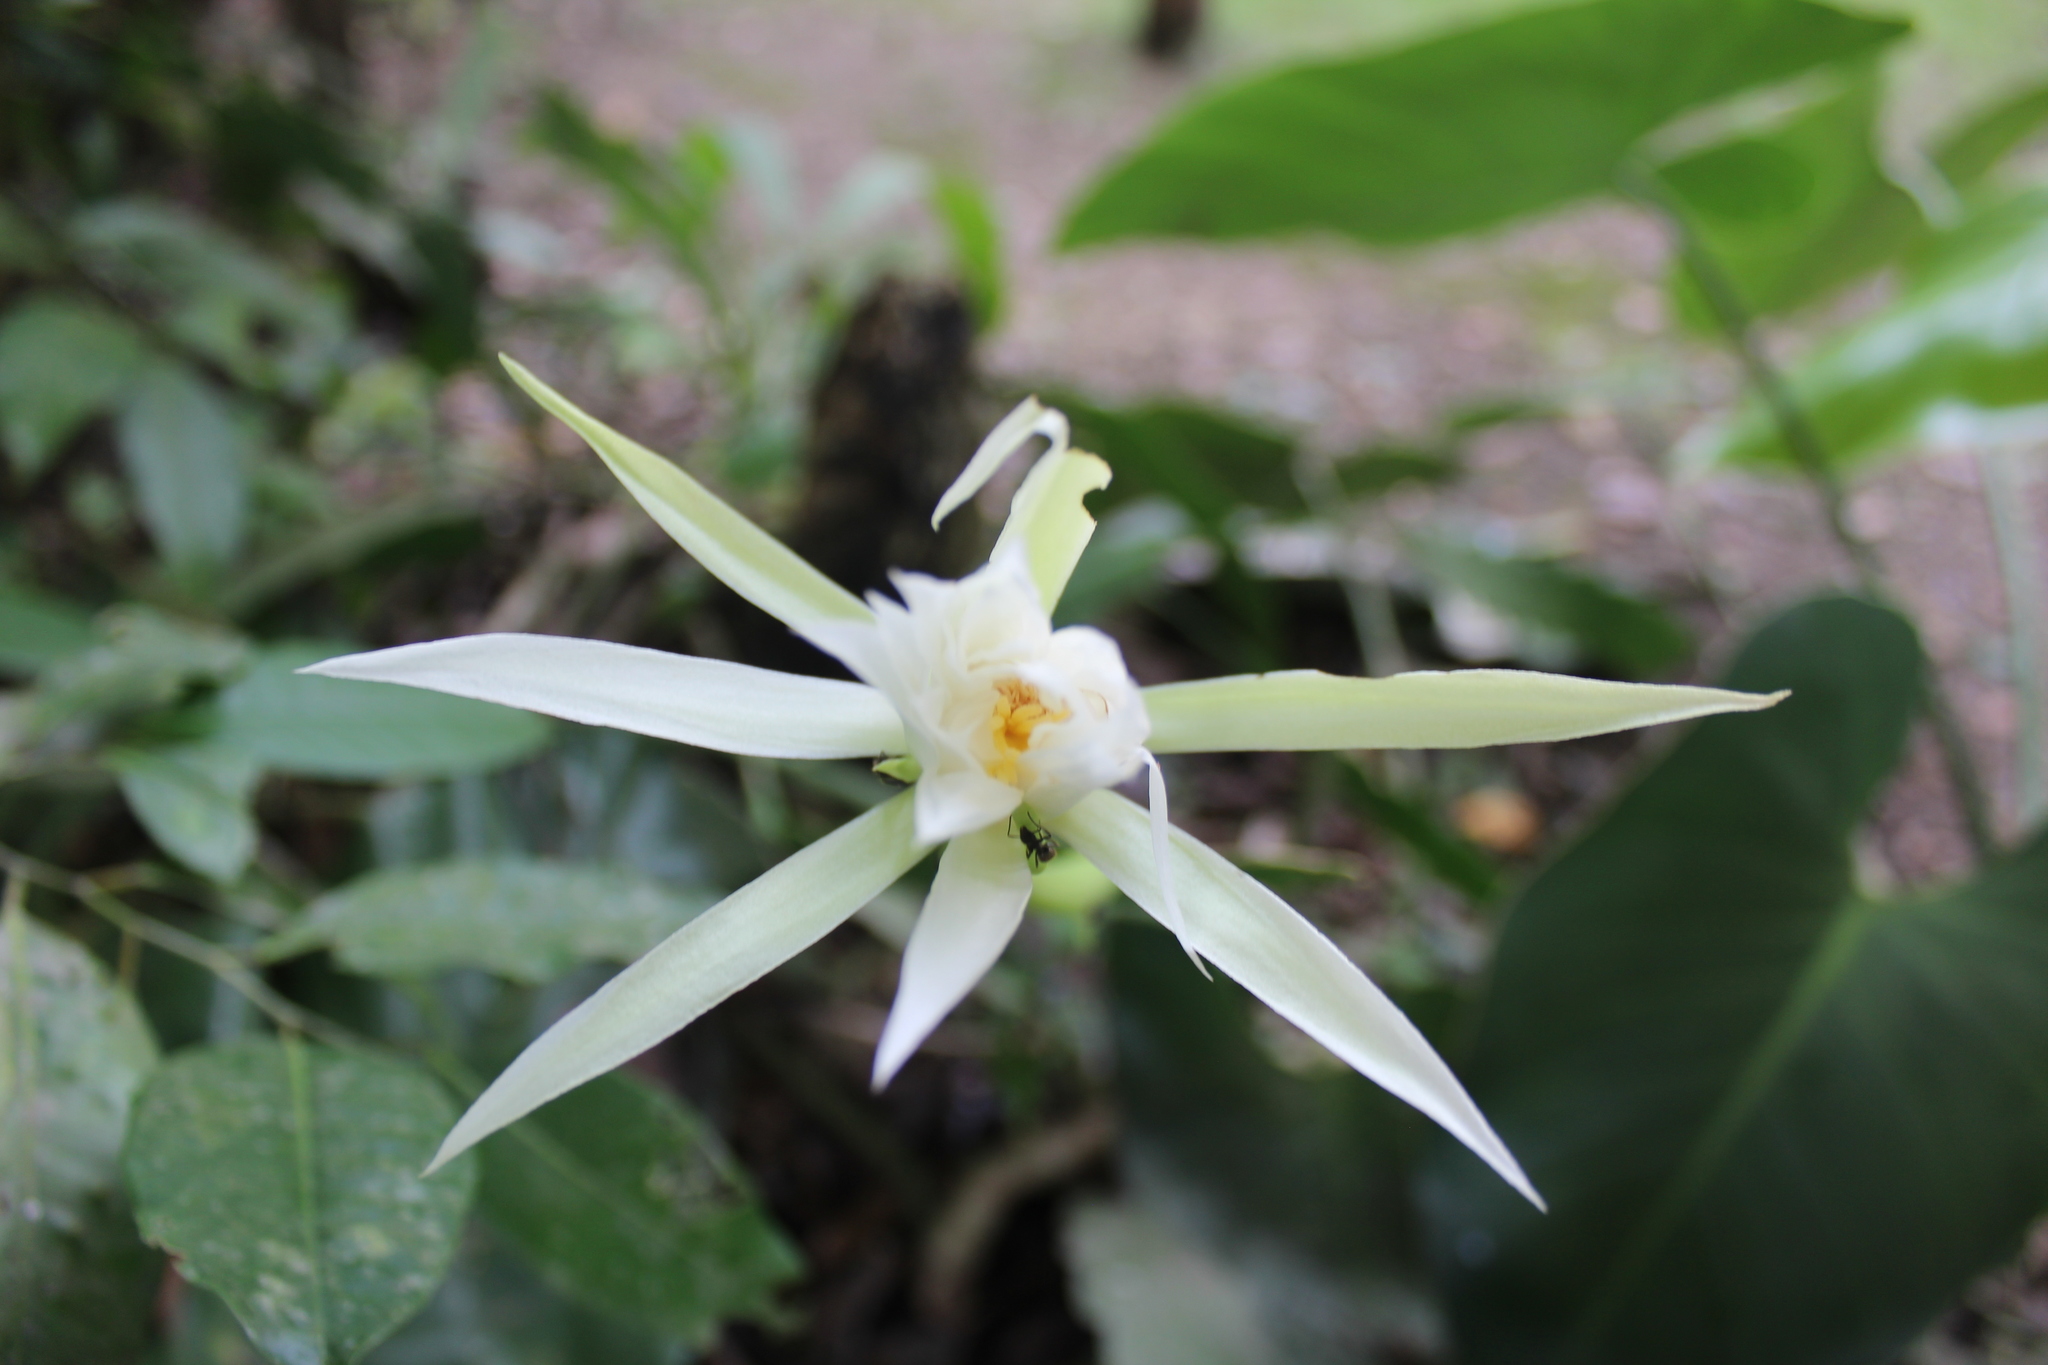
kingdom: Plantae
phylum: Tracheophyta
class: Magnoliopsida
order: Caryophyllales
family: Cactaceae
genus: Epiphyllum
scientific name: Epiphyllum hookeri
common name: Climbing cactus
